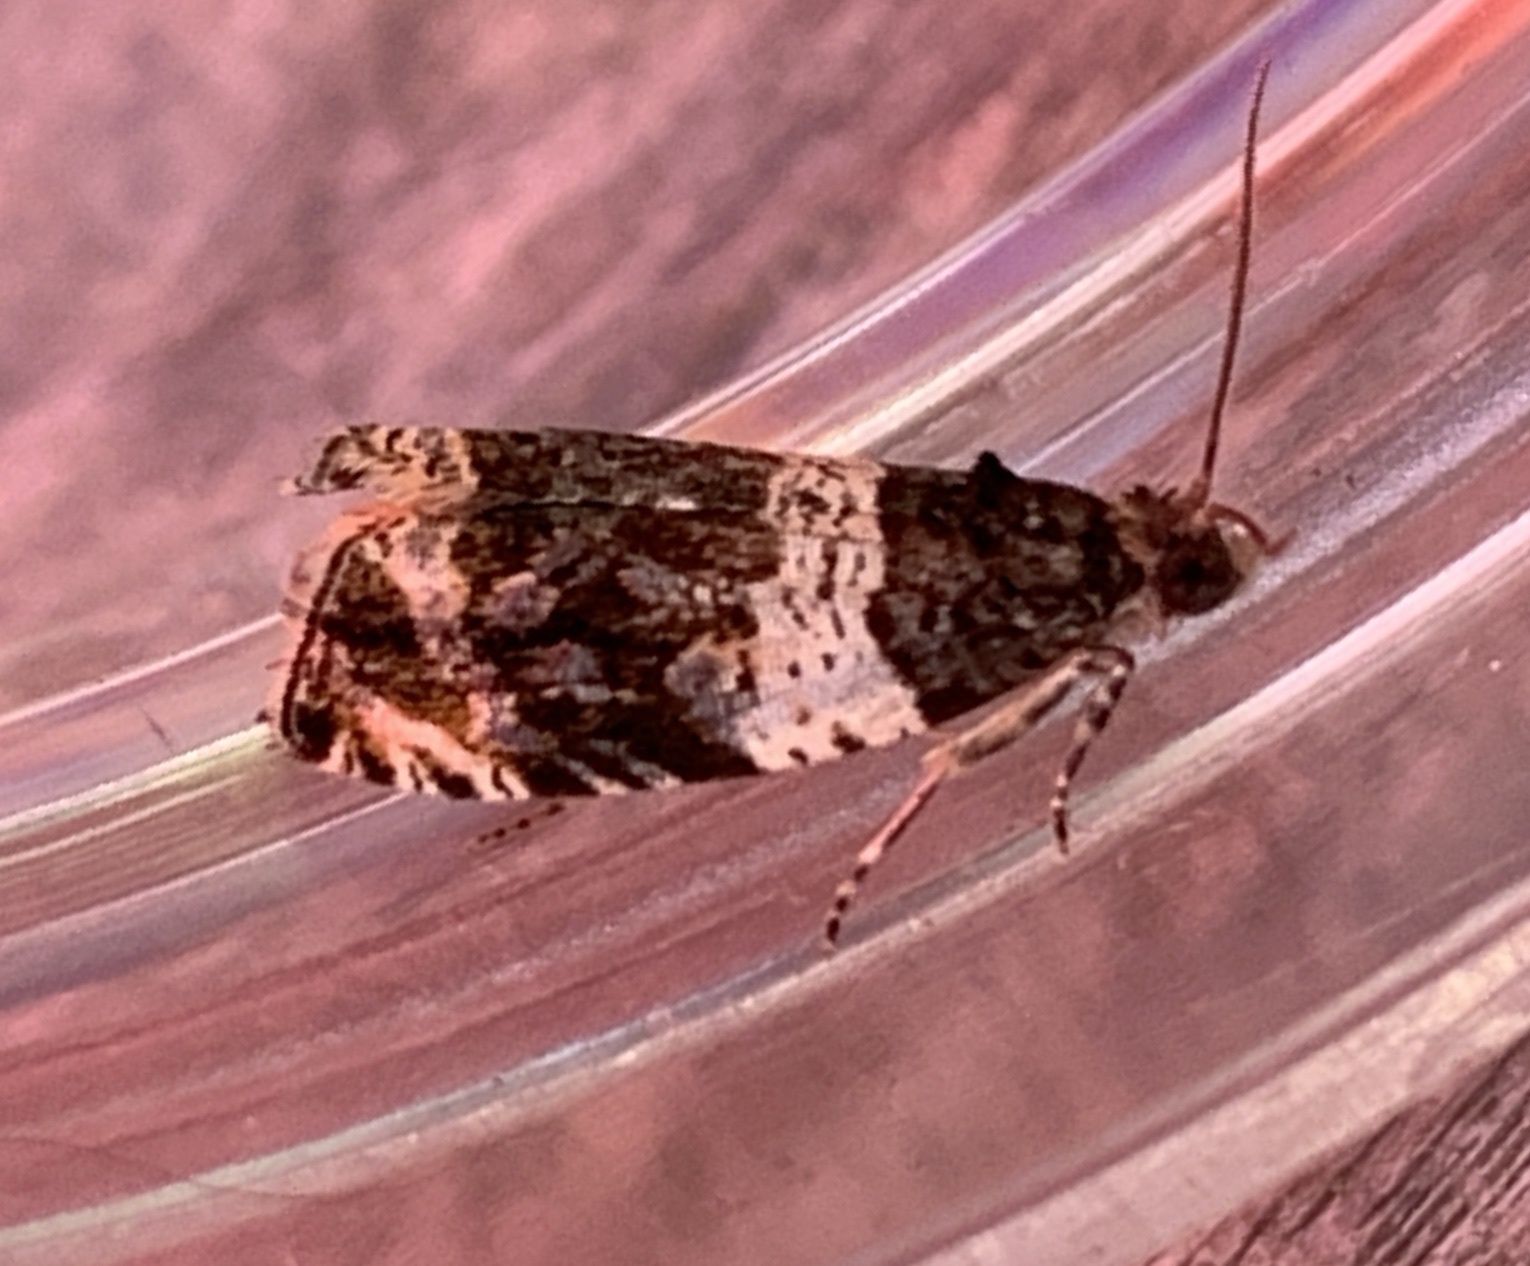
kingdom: Animalia
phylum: Arthropoda
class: Insecta
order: Lepidoptera
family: Tortricidae
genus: Olethreutes
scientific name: Olethreutes fasciatana
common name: Banded olethreutes moth
